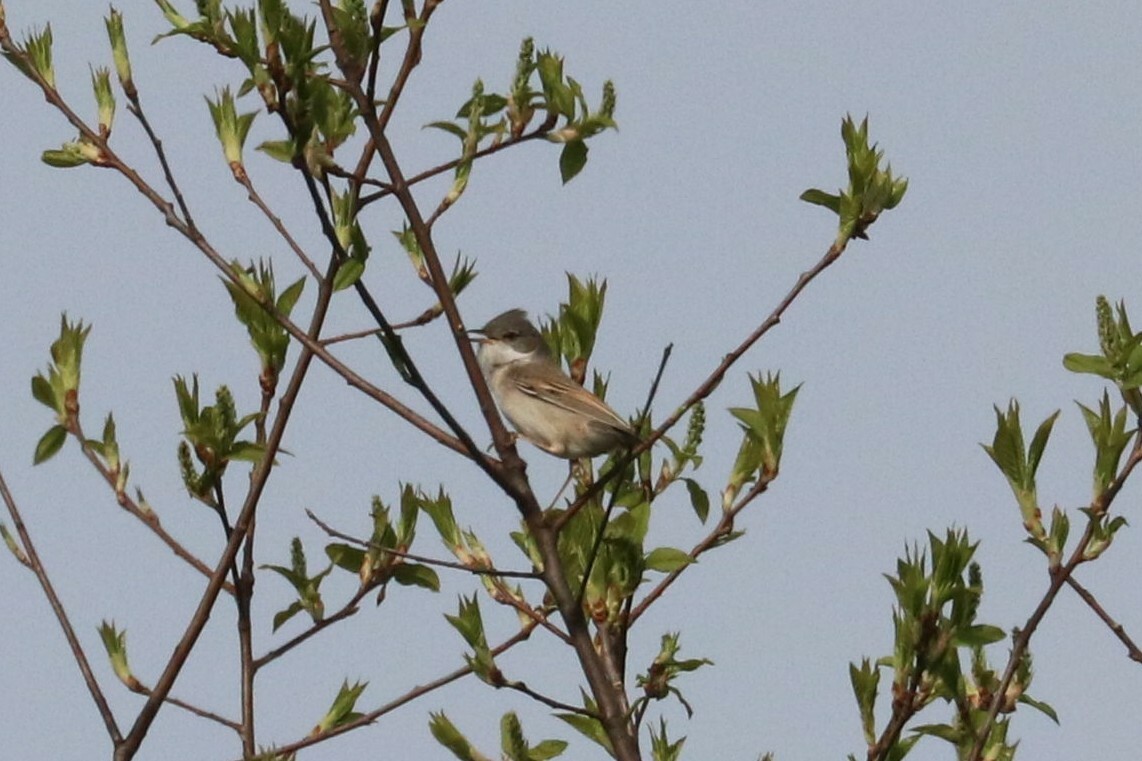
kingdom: Animalia
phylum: Chordata
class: Aves
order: Passeriformes
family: Sylviidae
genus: Sylvia
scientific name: Sylvia communis
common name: Common whitethroat
